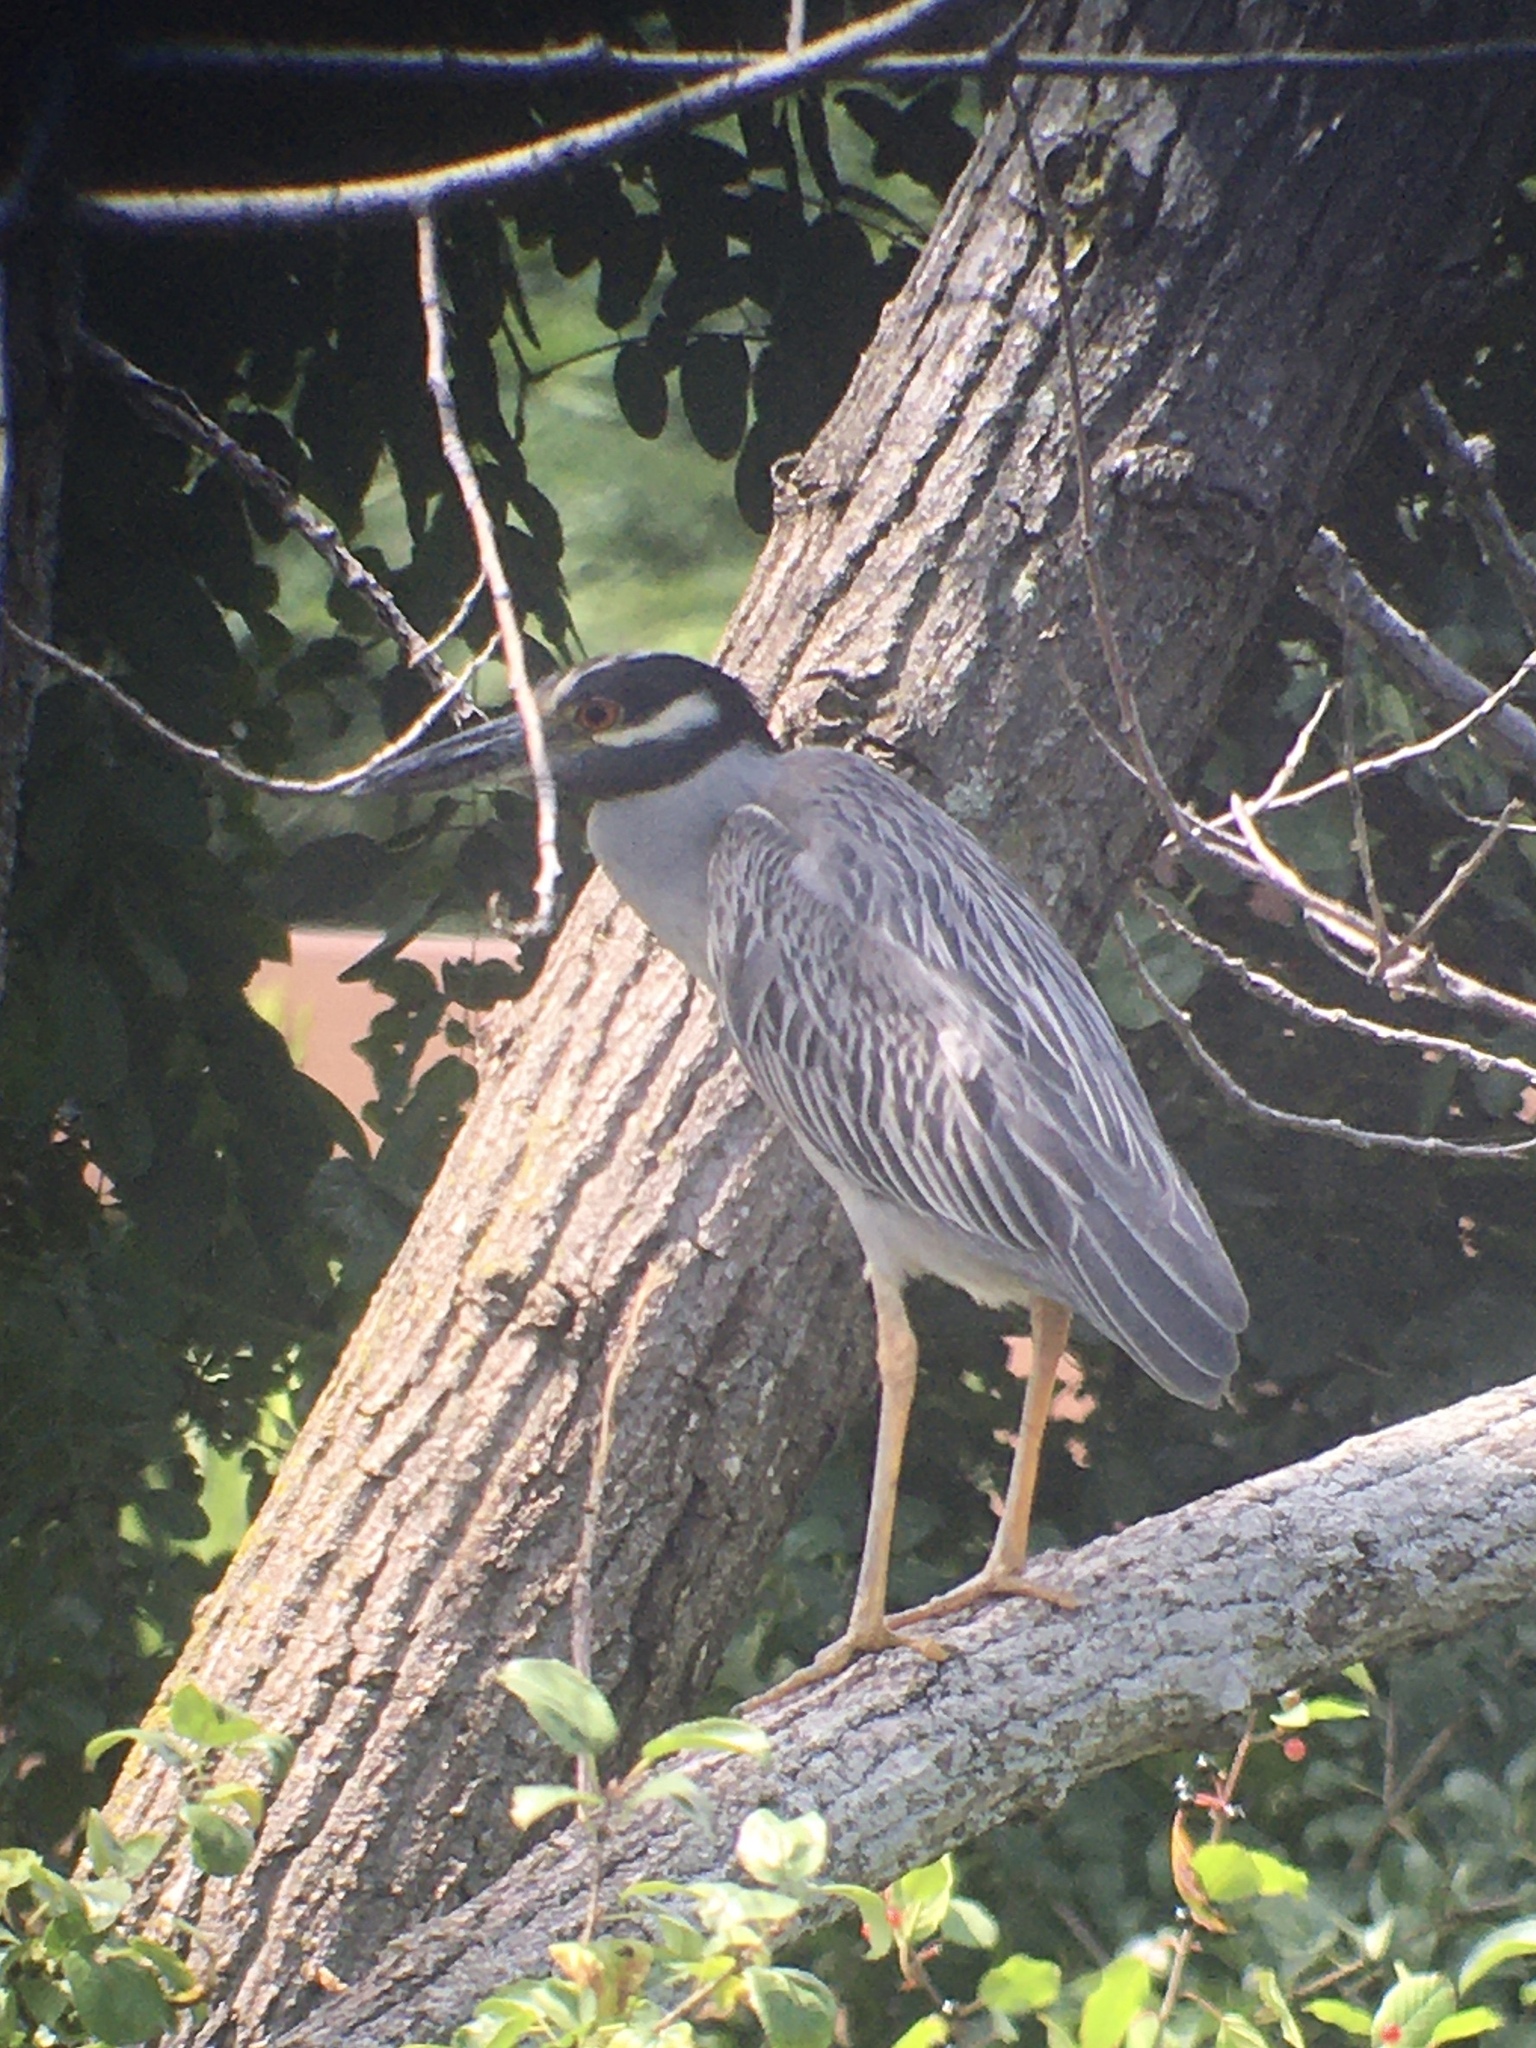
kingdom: Animalia
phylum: Chordata
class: Aves
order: Pelecaniformes
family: Ardeidae
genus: Nyctanassa
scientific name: Nyctanassa violacea
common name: Yellow-crowned night heron
